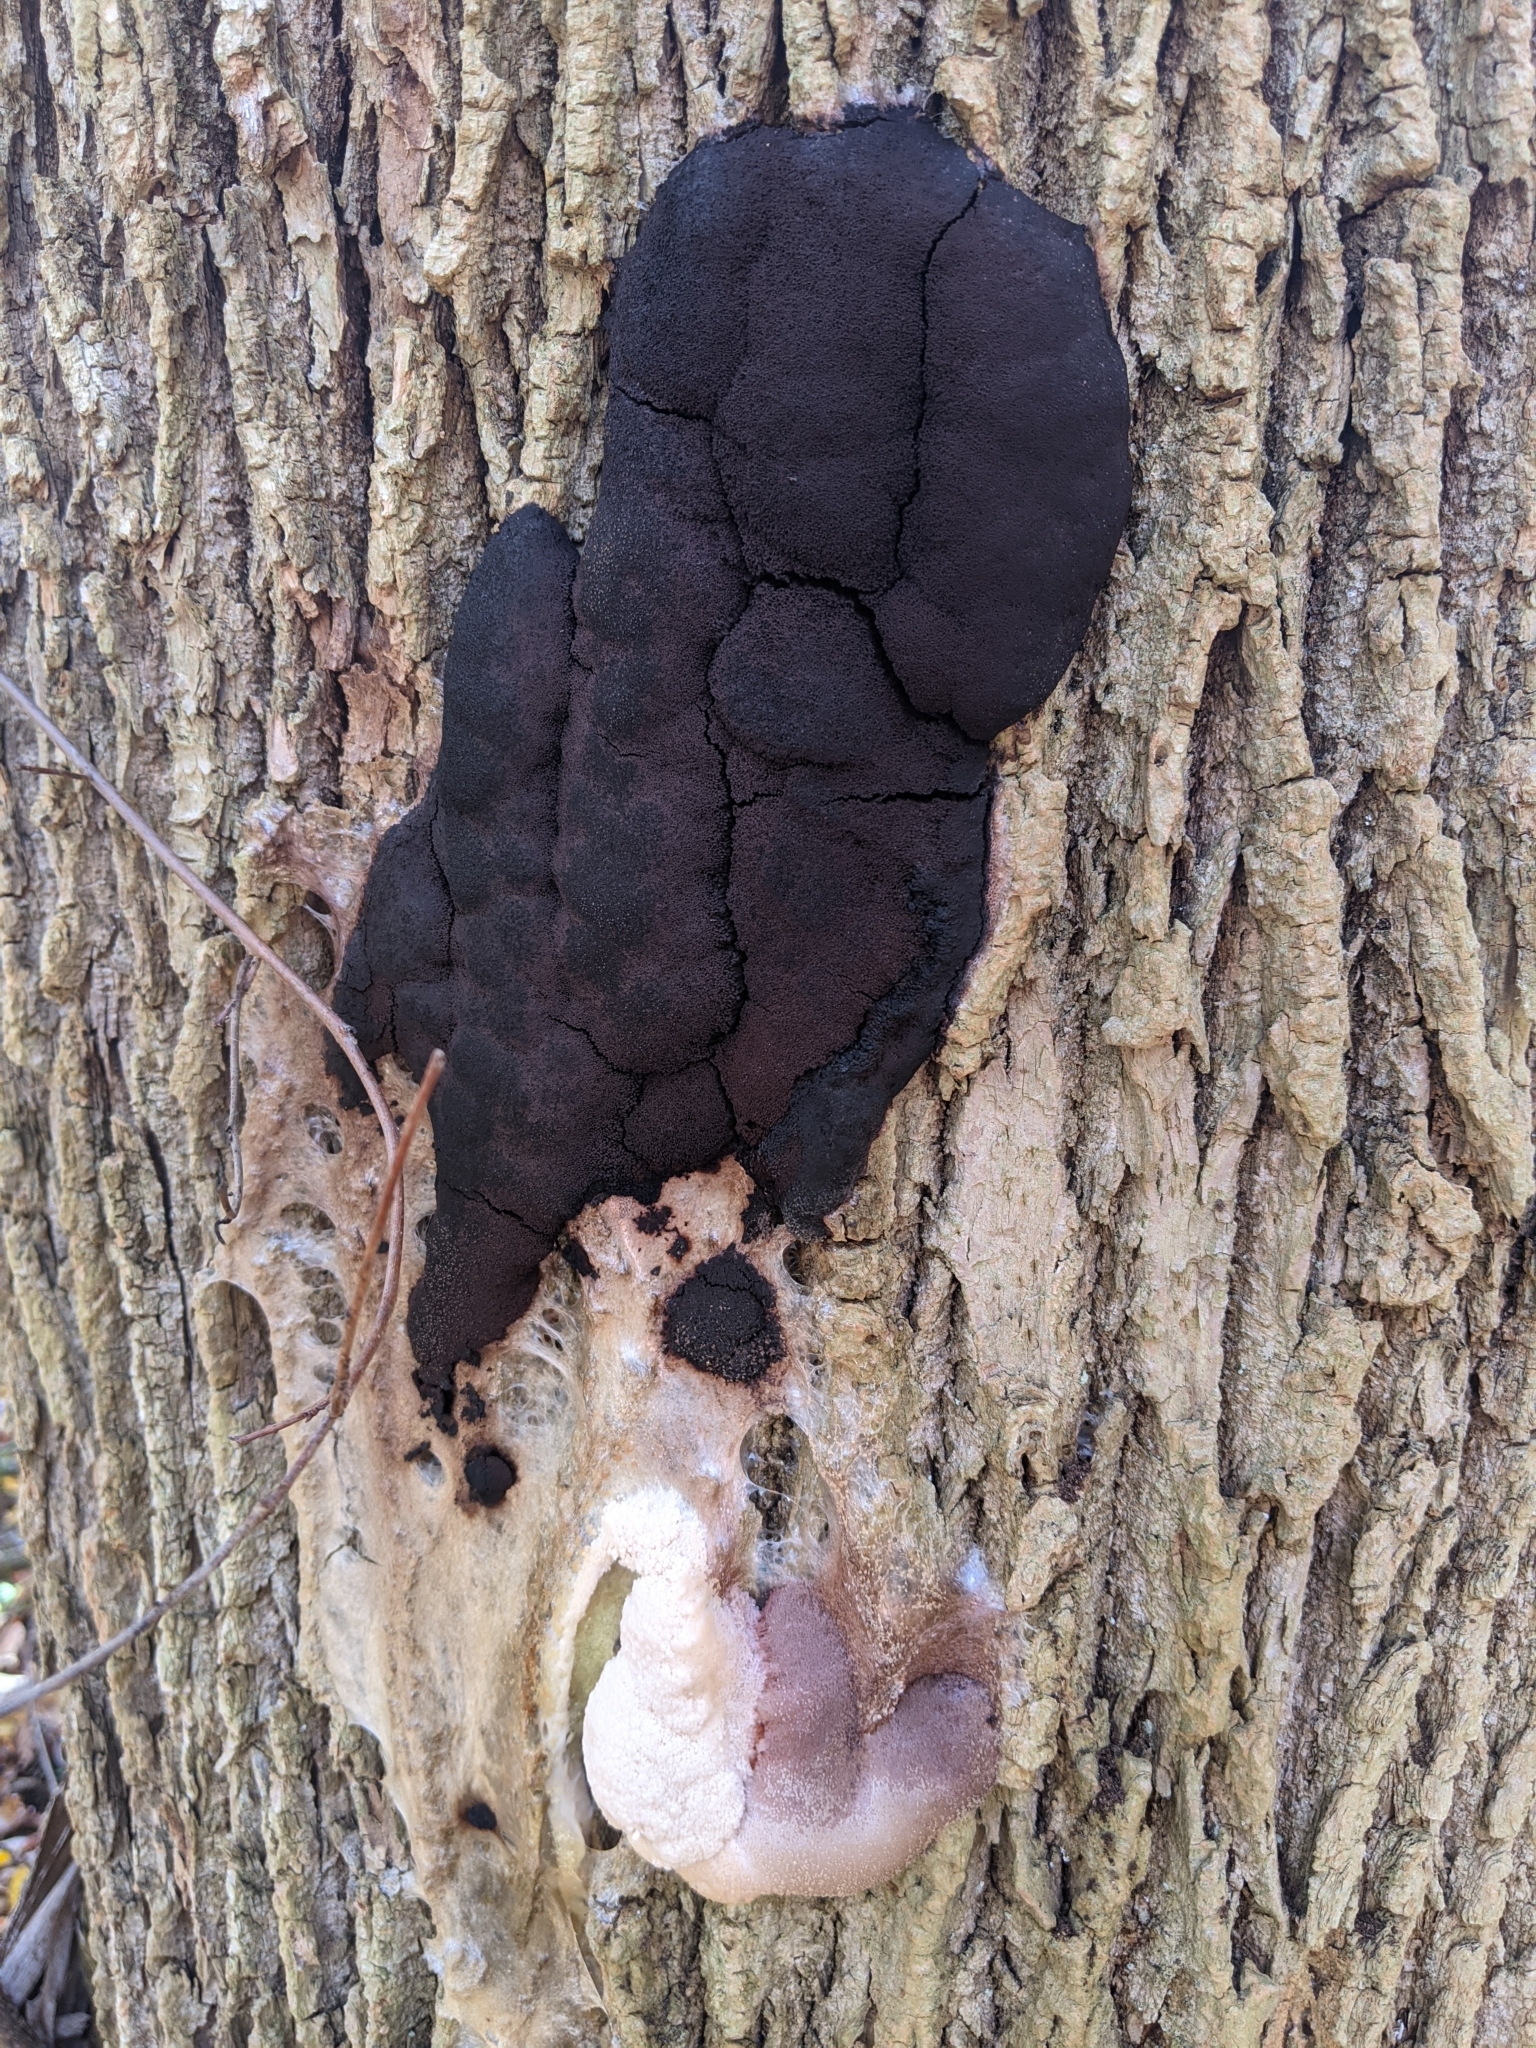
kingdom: Protozoa
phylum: Mycetozoa
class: Myxomycetes
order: Stemonitidales
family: Stemonitidaceae
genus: Brefeldia
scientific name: Brefeldia maxima
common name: Tapioca slime mold
